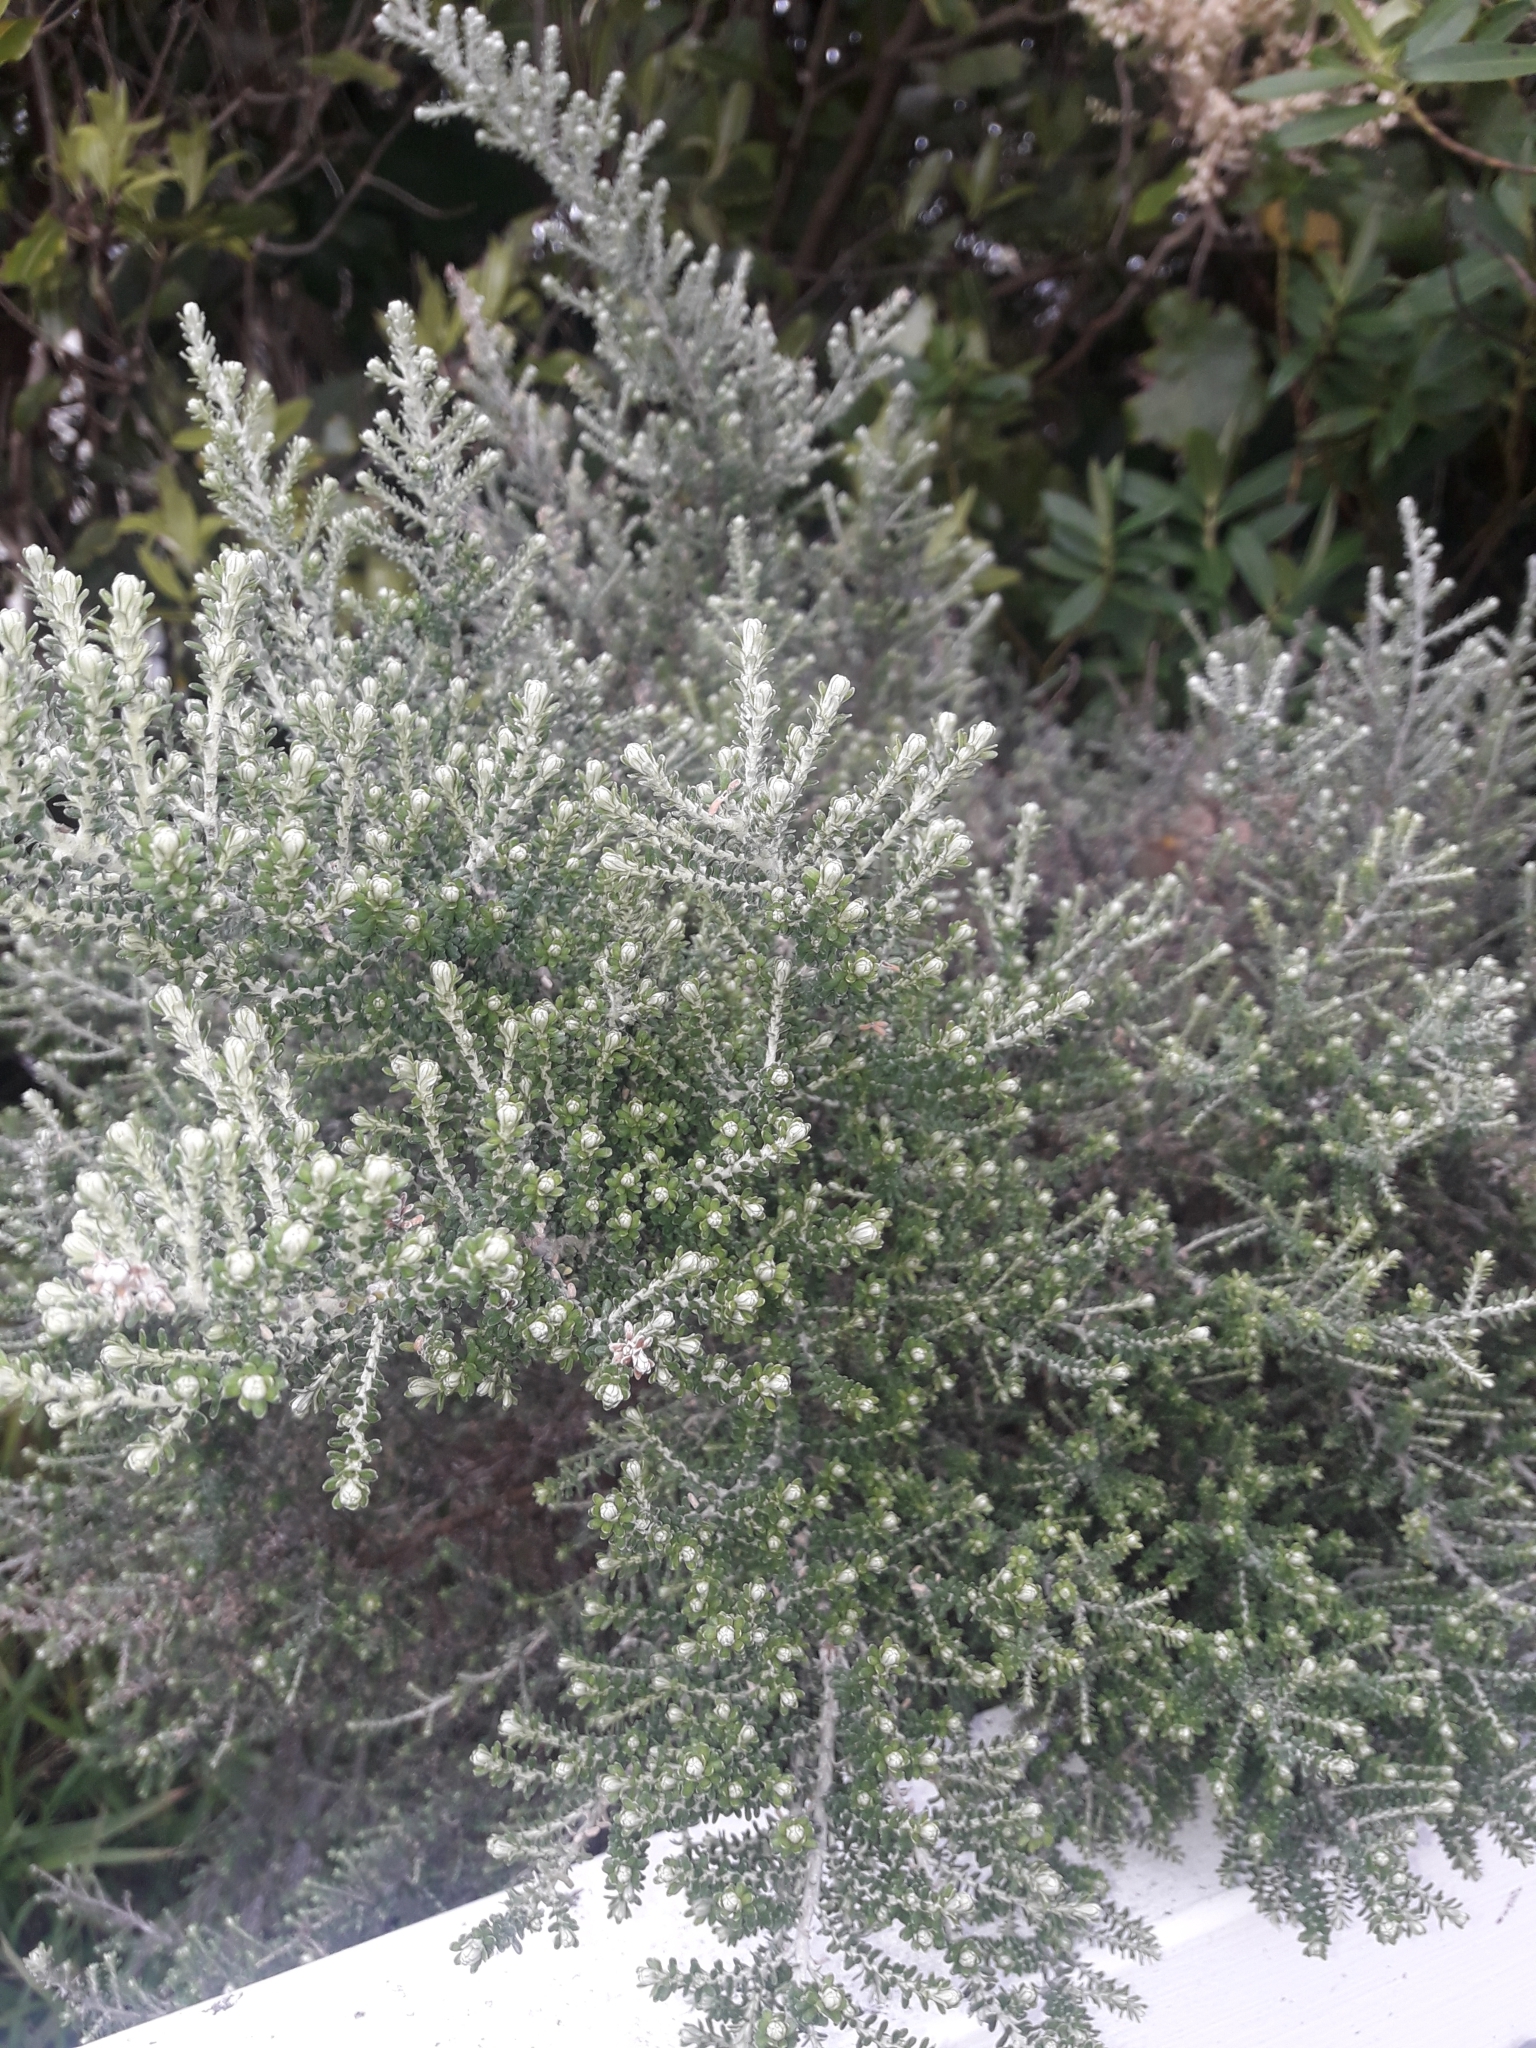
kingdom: Plantae
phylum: Tracheophyta
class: Magnoliopsida
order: Asterales
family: Asteraceae
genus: Ozothamnus
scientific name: Ozothamnus leptophyllus
